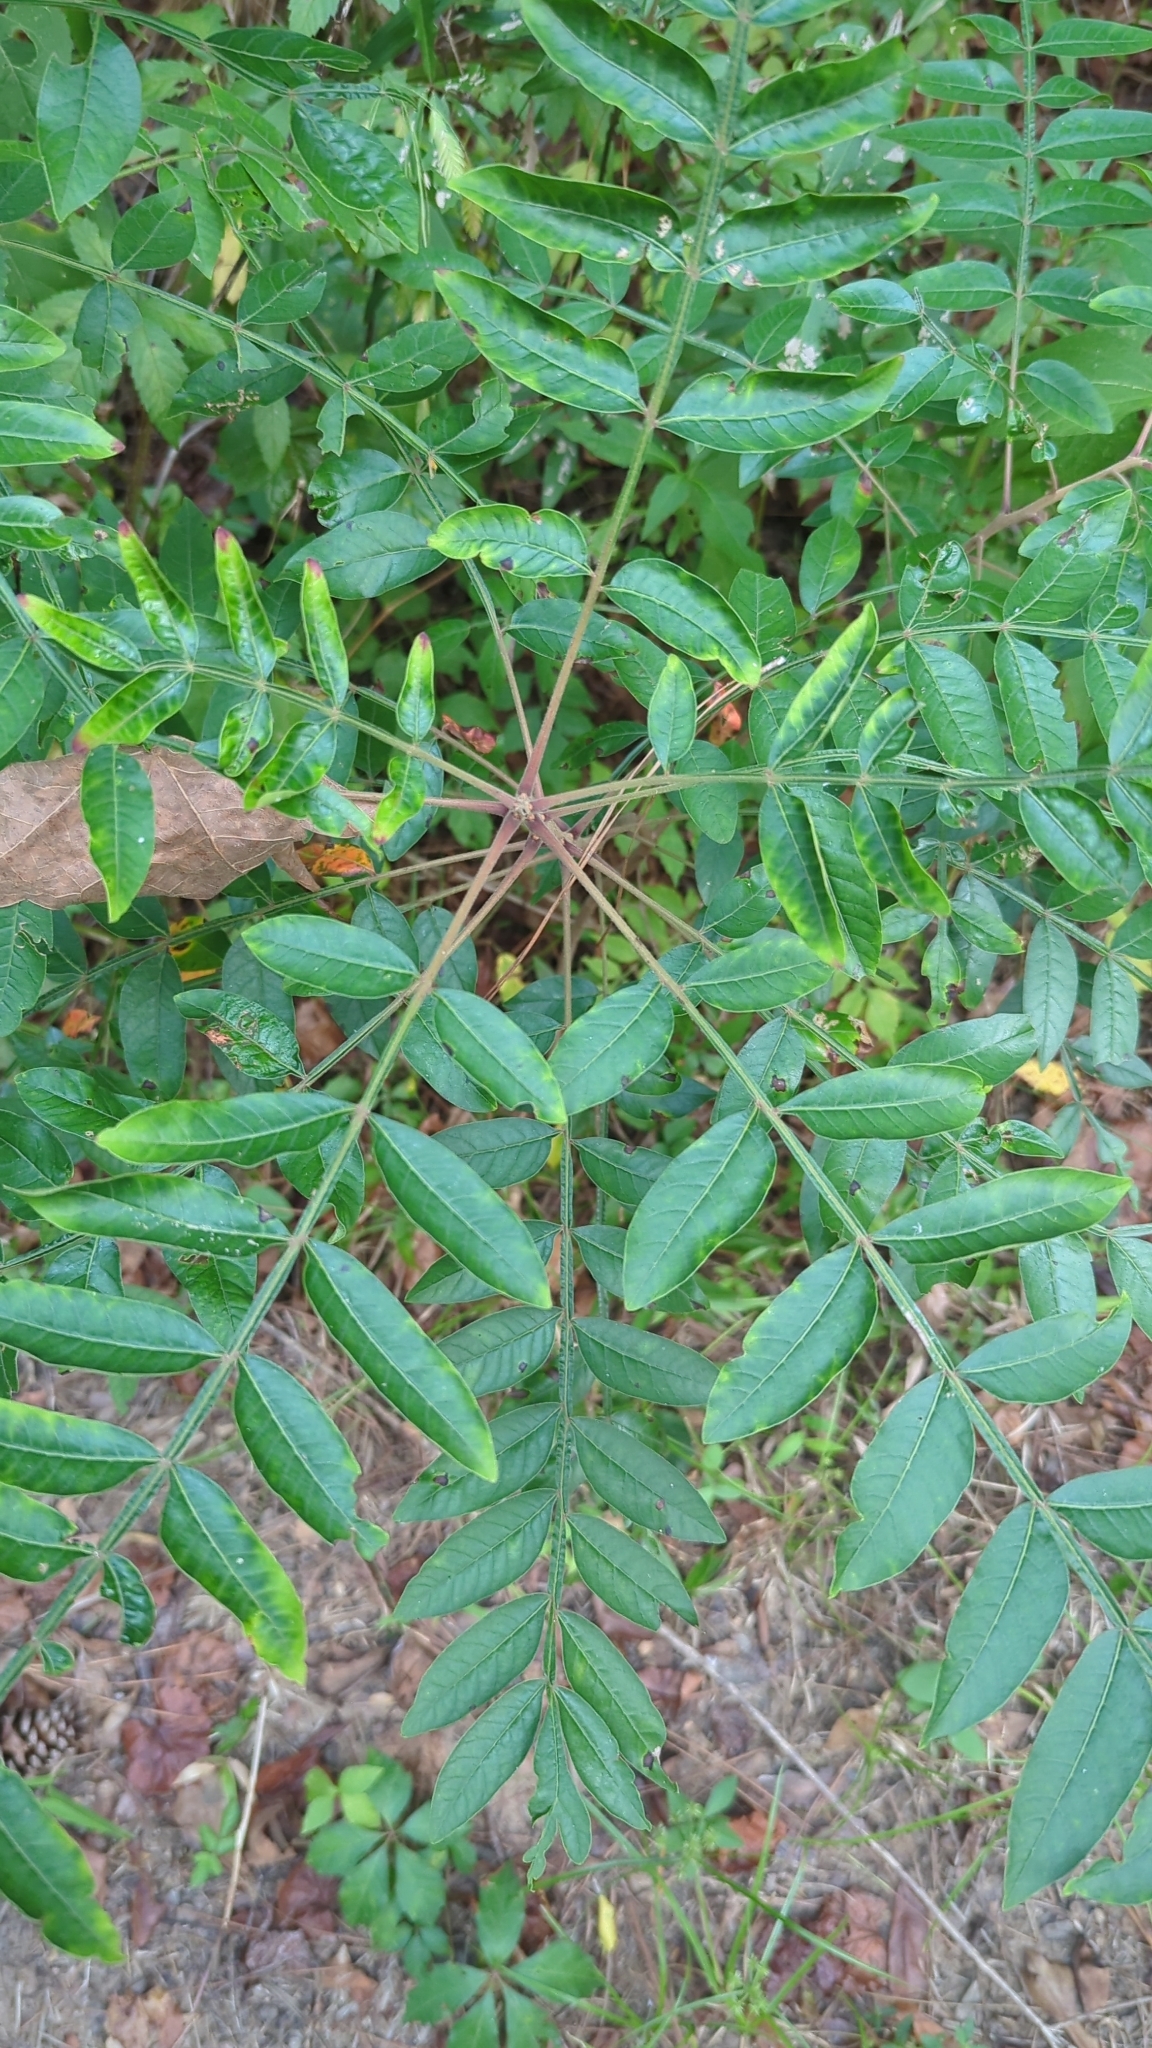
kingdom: Plantae
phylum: Tracheophyta
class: Magnoliopsida
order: Sapindales
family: Anacardiaceae
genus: Rhus
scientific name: Rhus copallina
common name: Shining sumac
